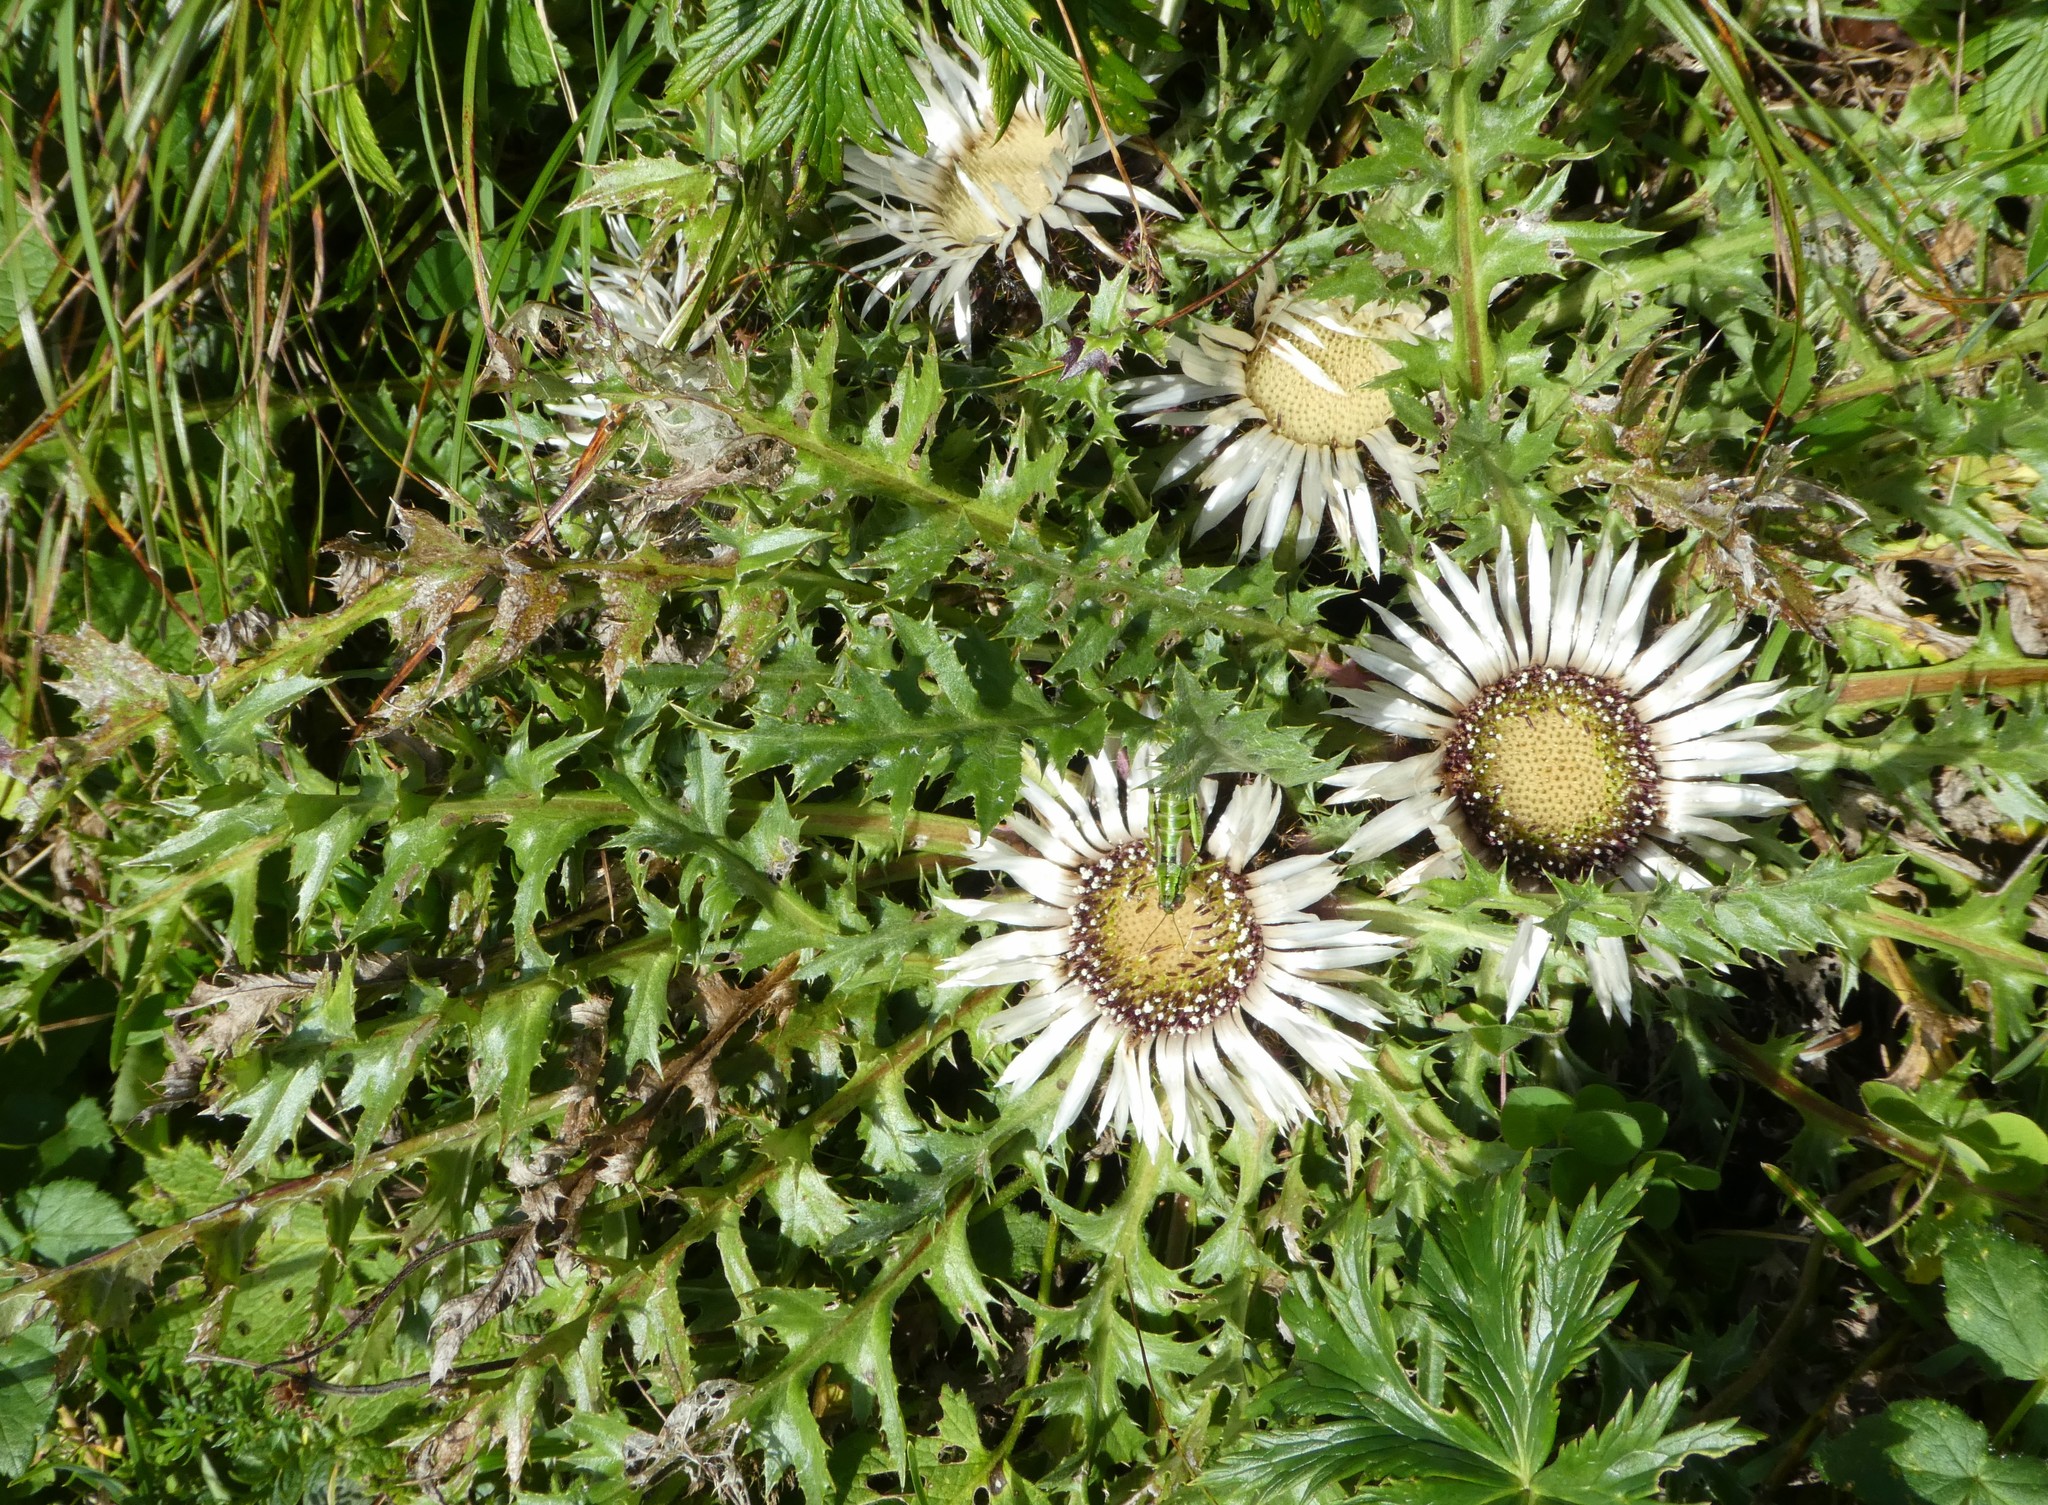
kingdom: Plantae
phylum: Tracheophyta
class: Magnoliopsida
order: Asterales
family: Asteraceae
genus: Carlina
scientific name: Carlina acaulis
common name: Stemless carline thistle
